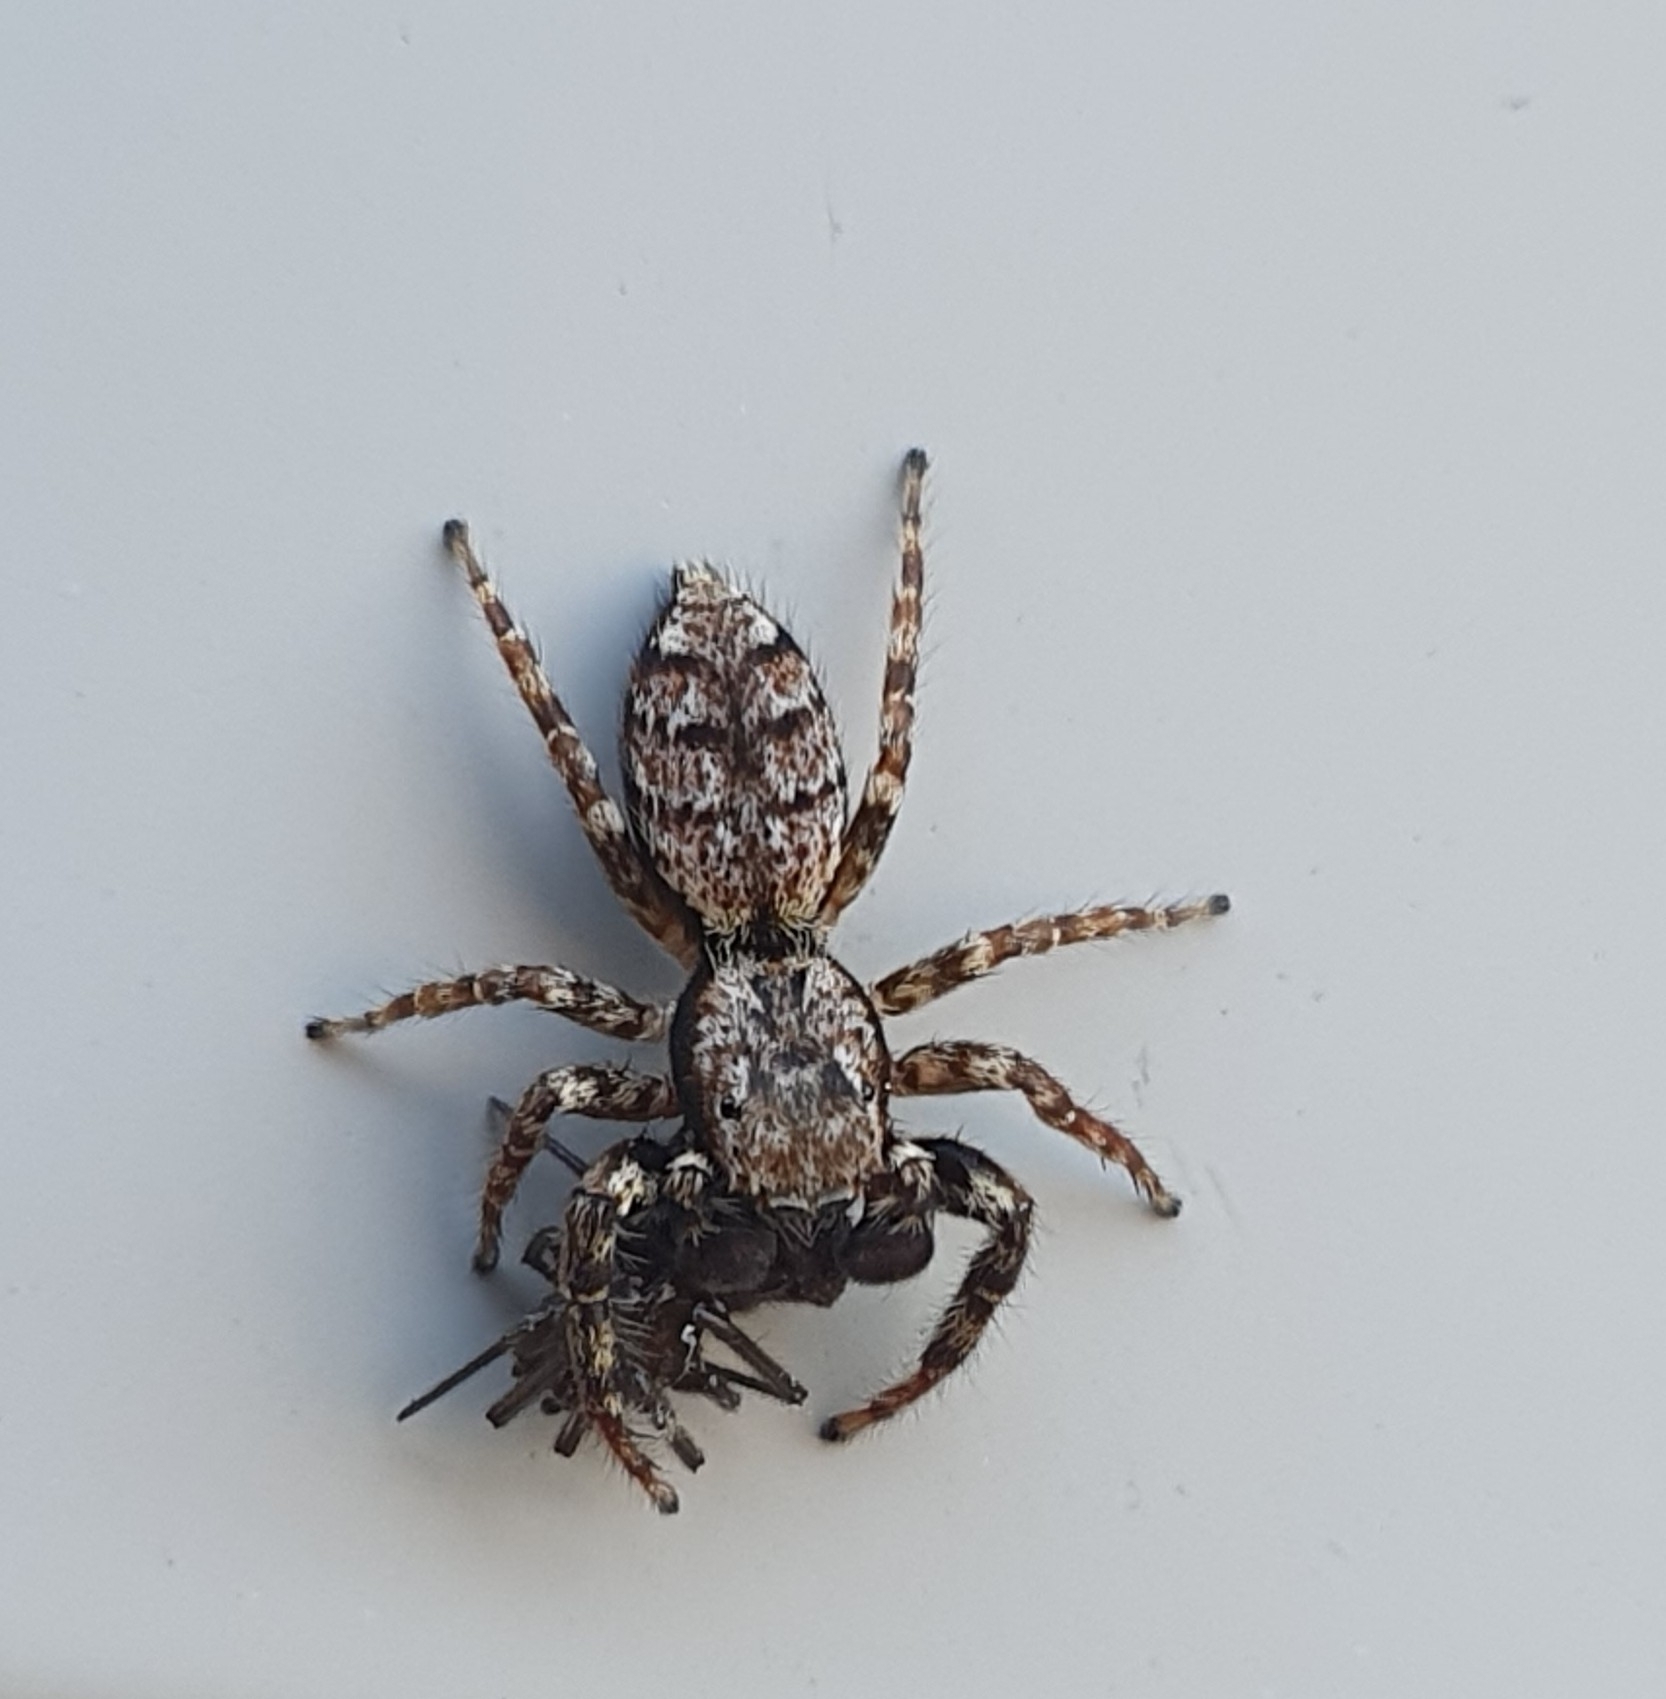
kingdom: Animalia
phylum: Arthropoda
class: Arachnida
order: Araneae
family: Salticidae
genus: Marpissa
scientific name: Marpissa muscosa
